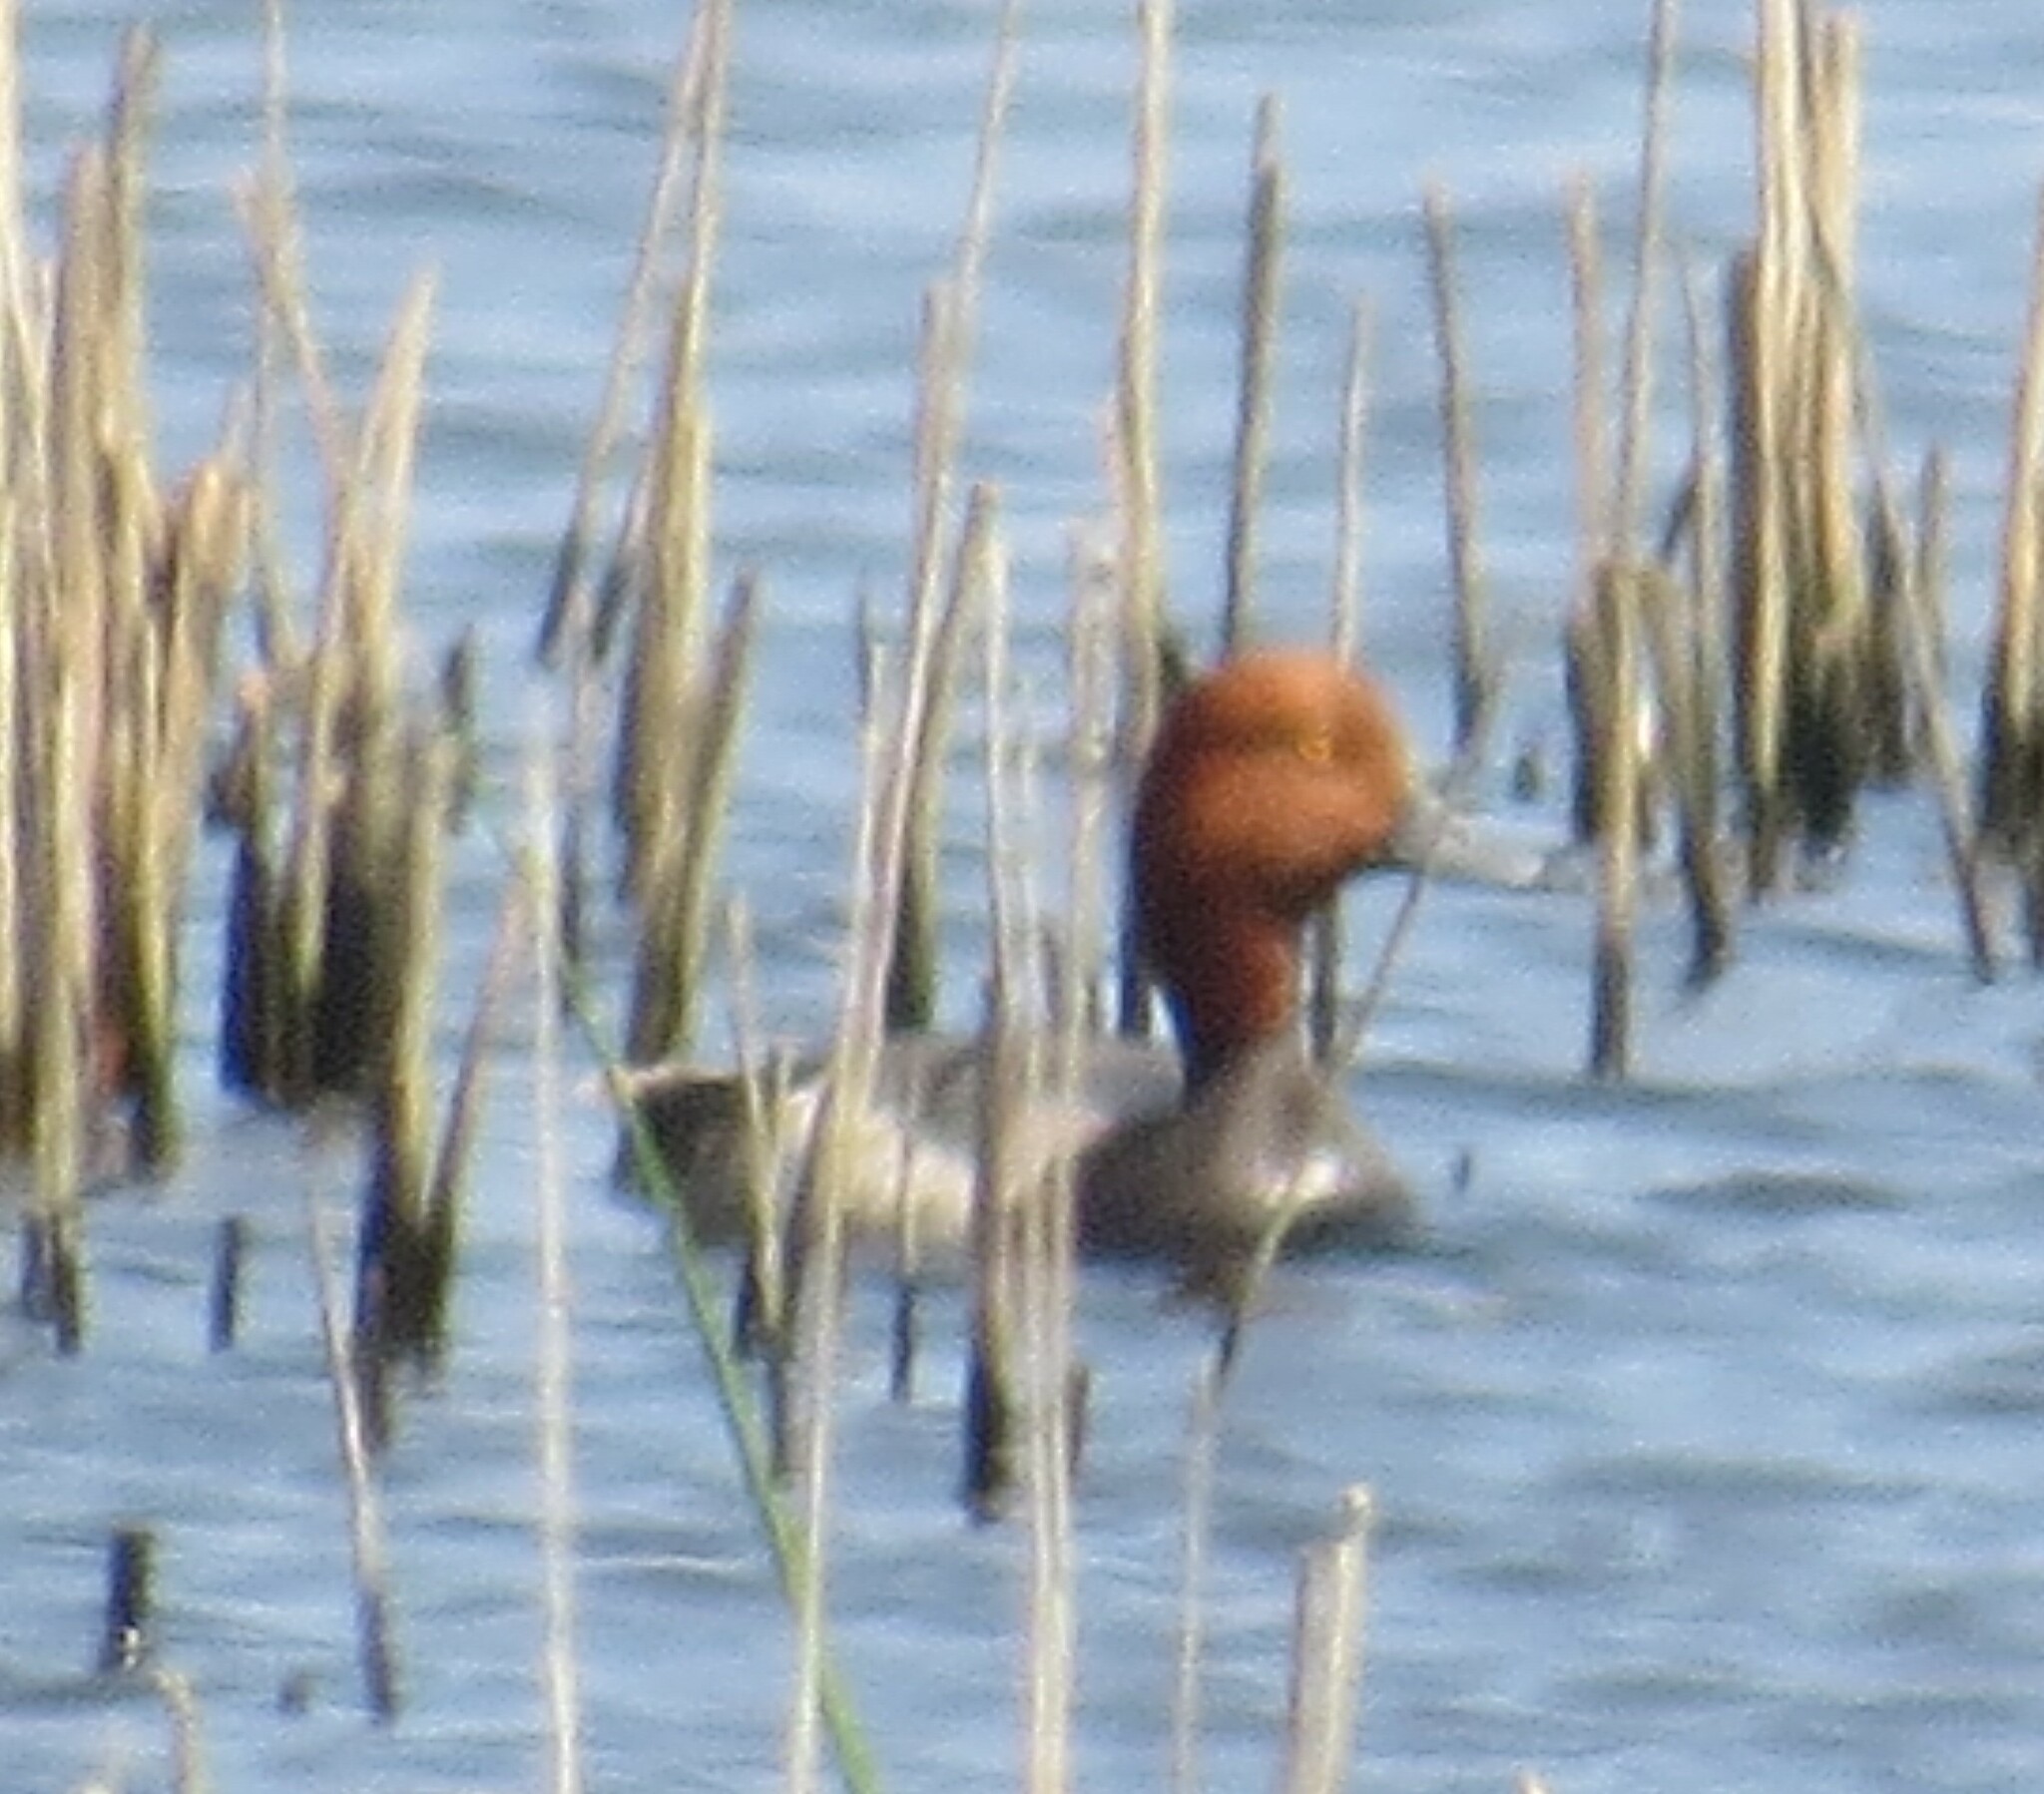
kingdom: Animalia
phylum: Chordata
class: Aves
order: Anseriformes
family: Anatidae
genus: Aythya
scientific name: Aythya americana
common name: Redhead
